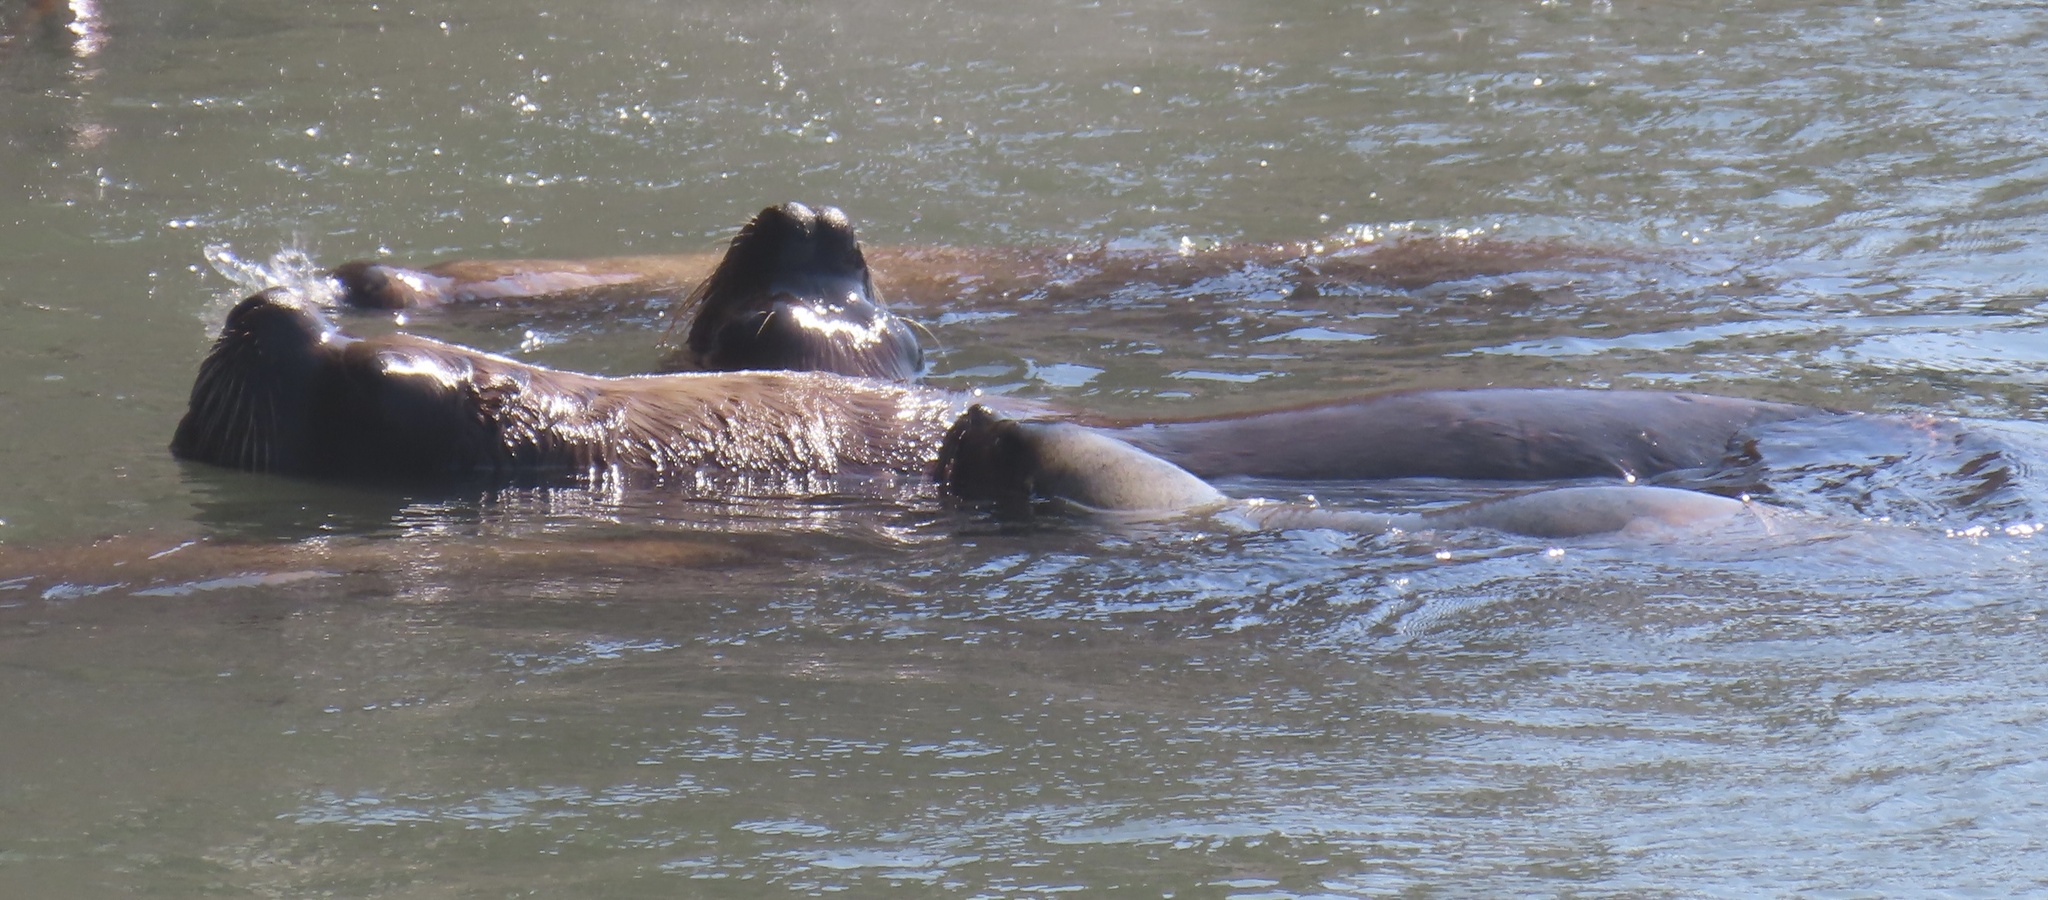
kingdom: Animalia
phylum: Chordata
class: Mammalia
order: Carnivora
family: Otariidae
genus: Otaria
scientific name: Otaria byronia
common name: South american sea lion
